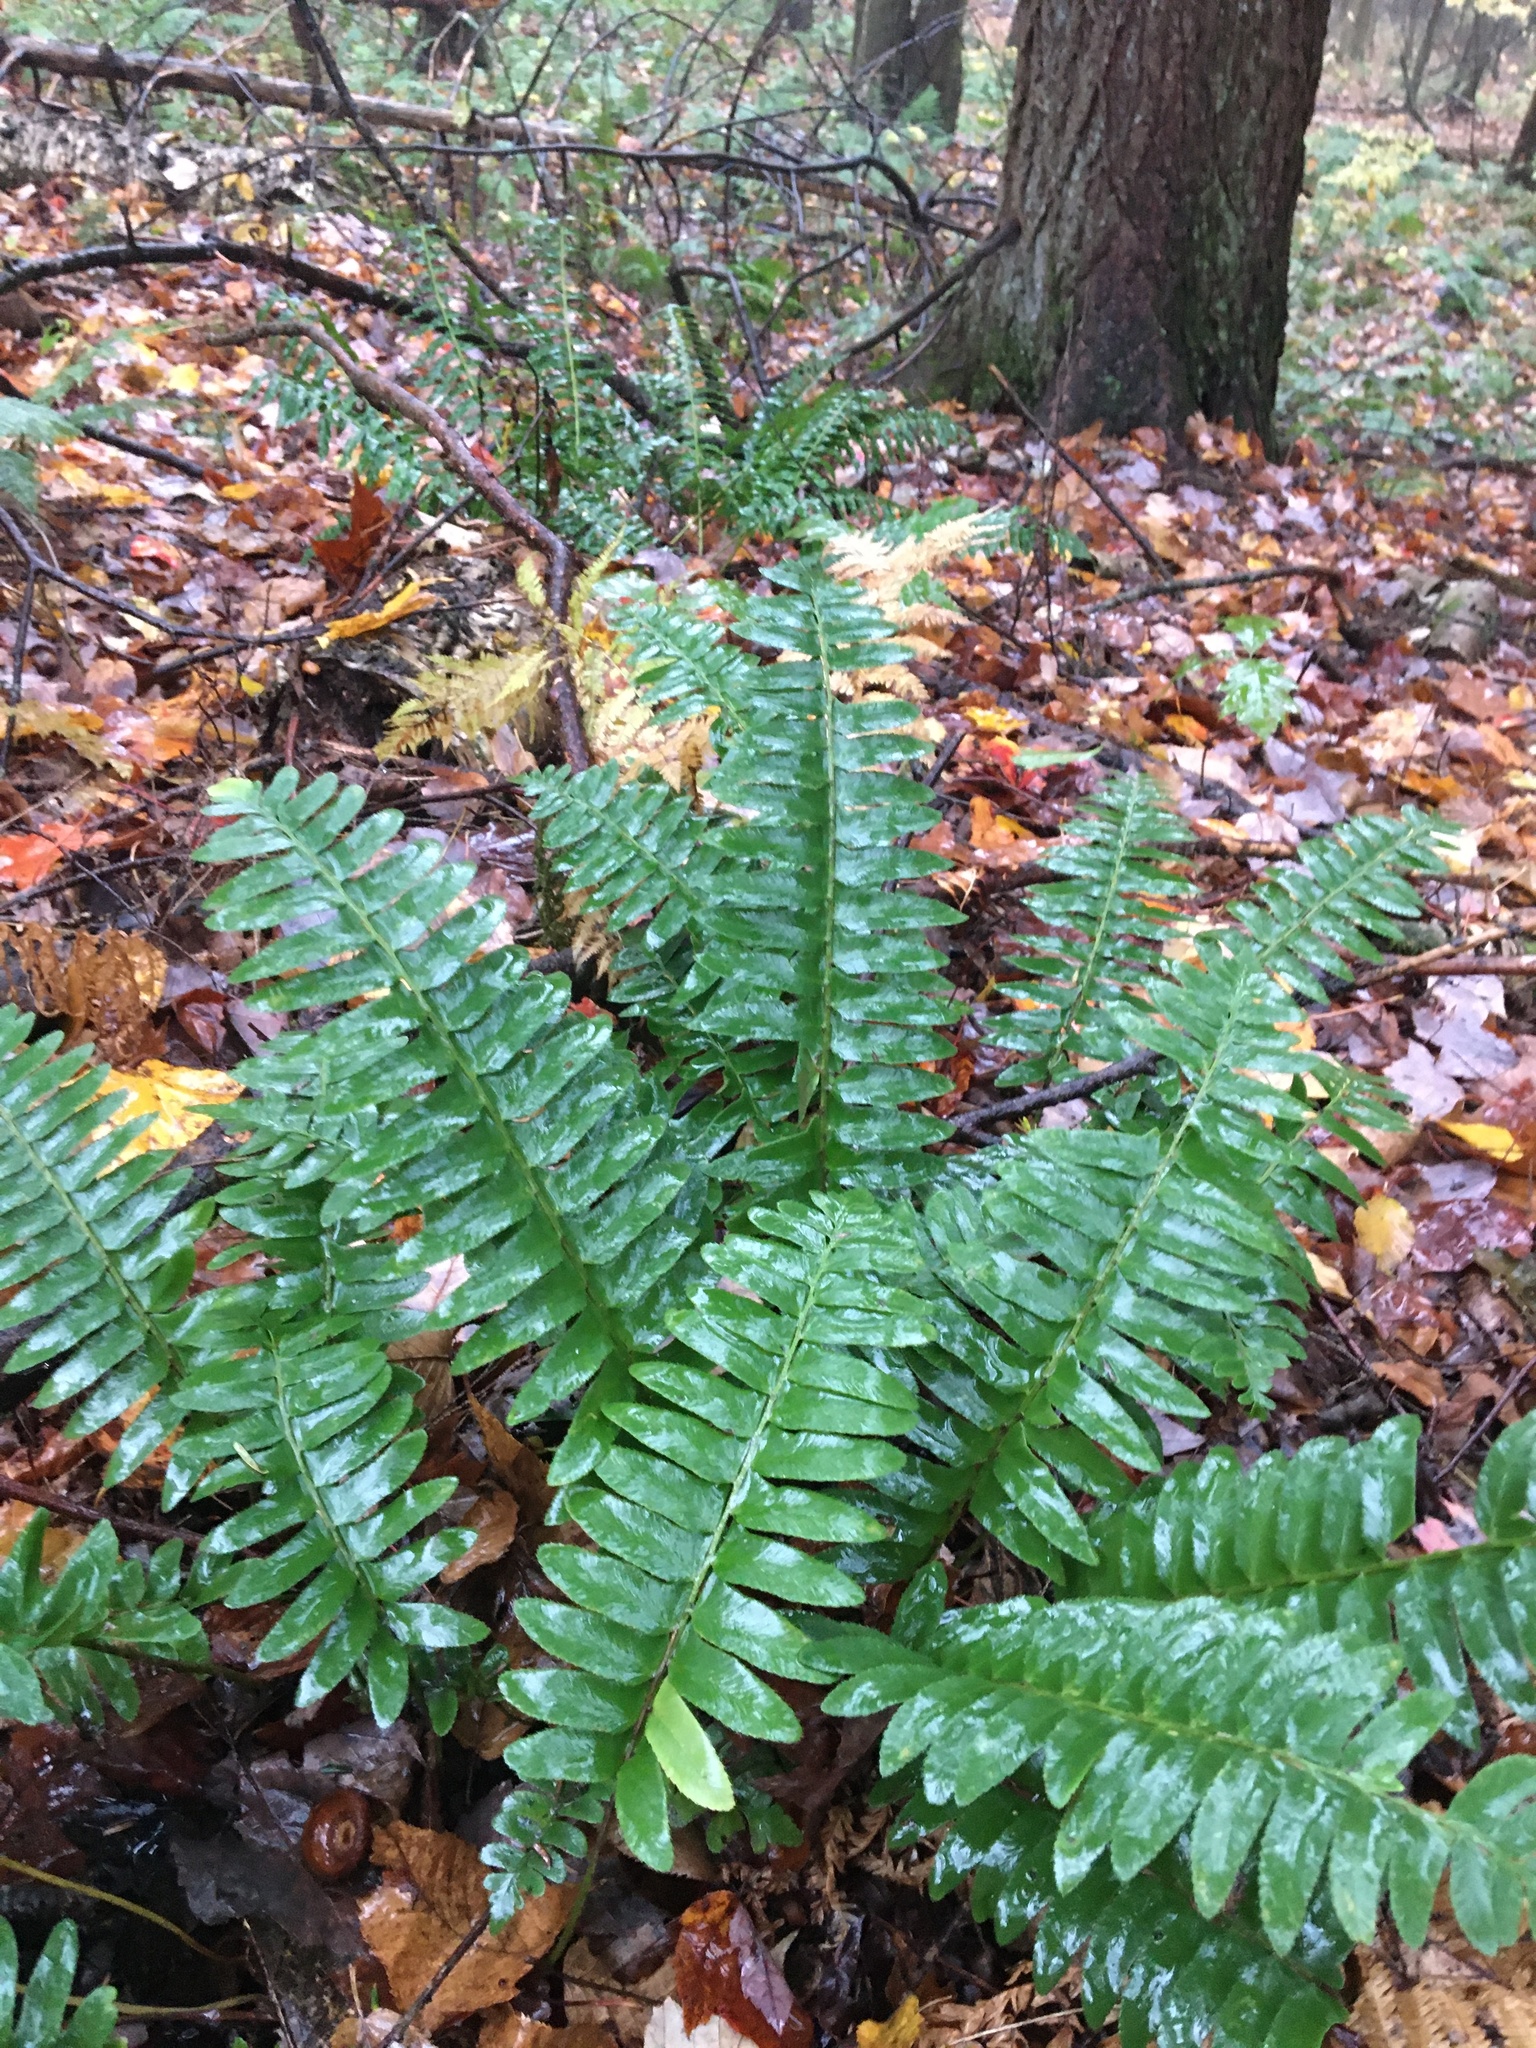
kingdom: Plantae
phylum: Tracheophyta
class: Polypodiopsida
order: Polypodiales
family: Dryopteridaceae
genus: Polystichum
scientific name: Polystichum acrostichoides
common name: Christmas fern
